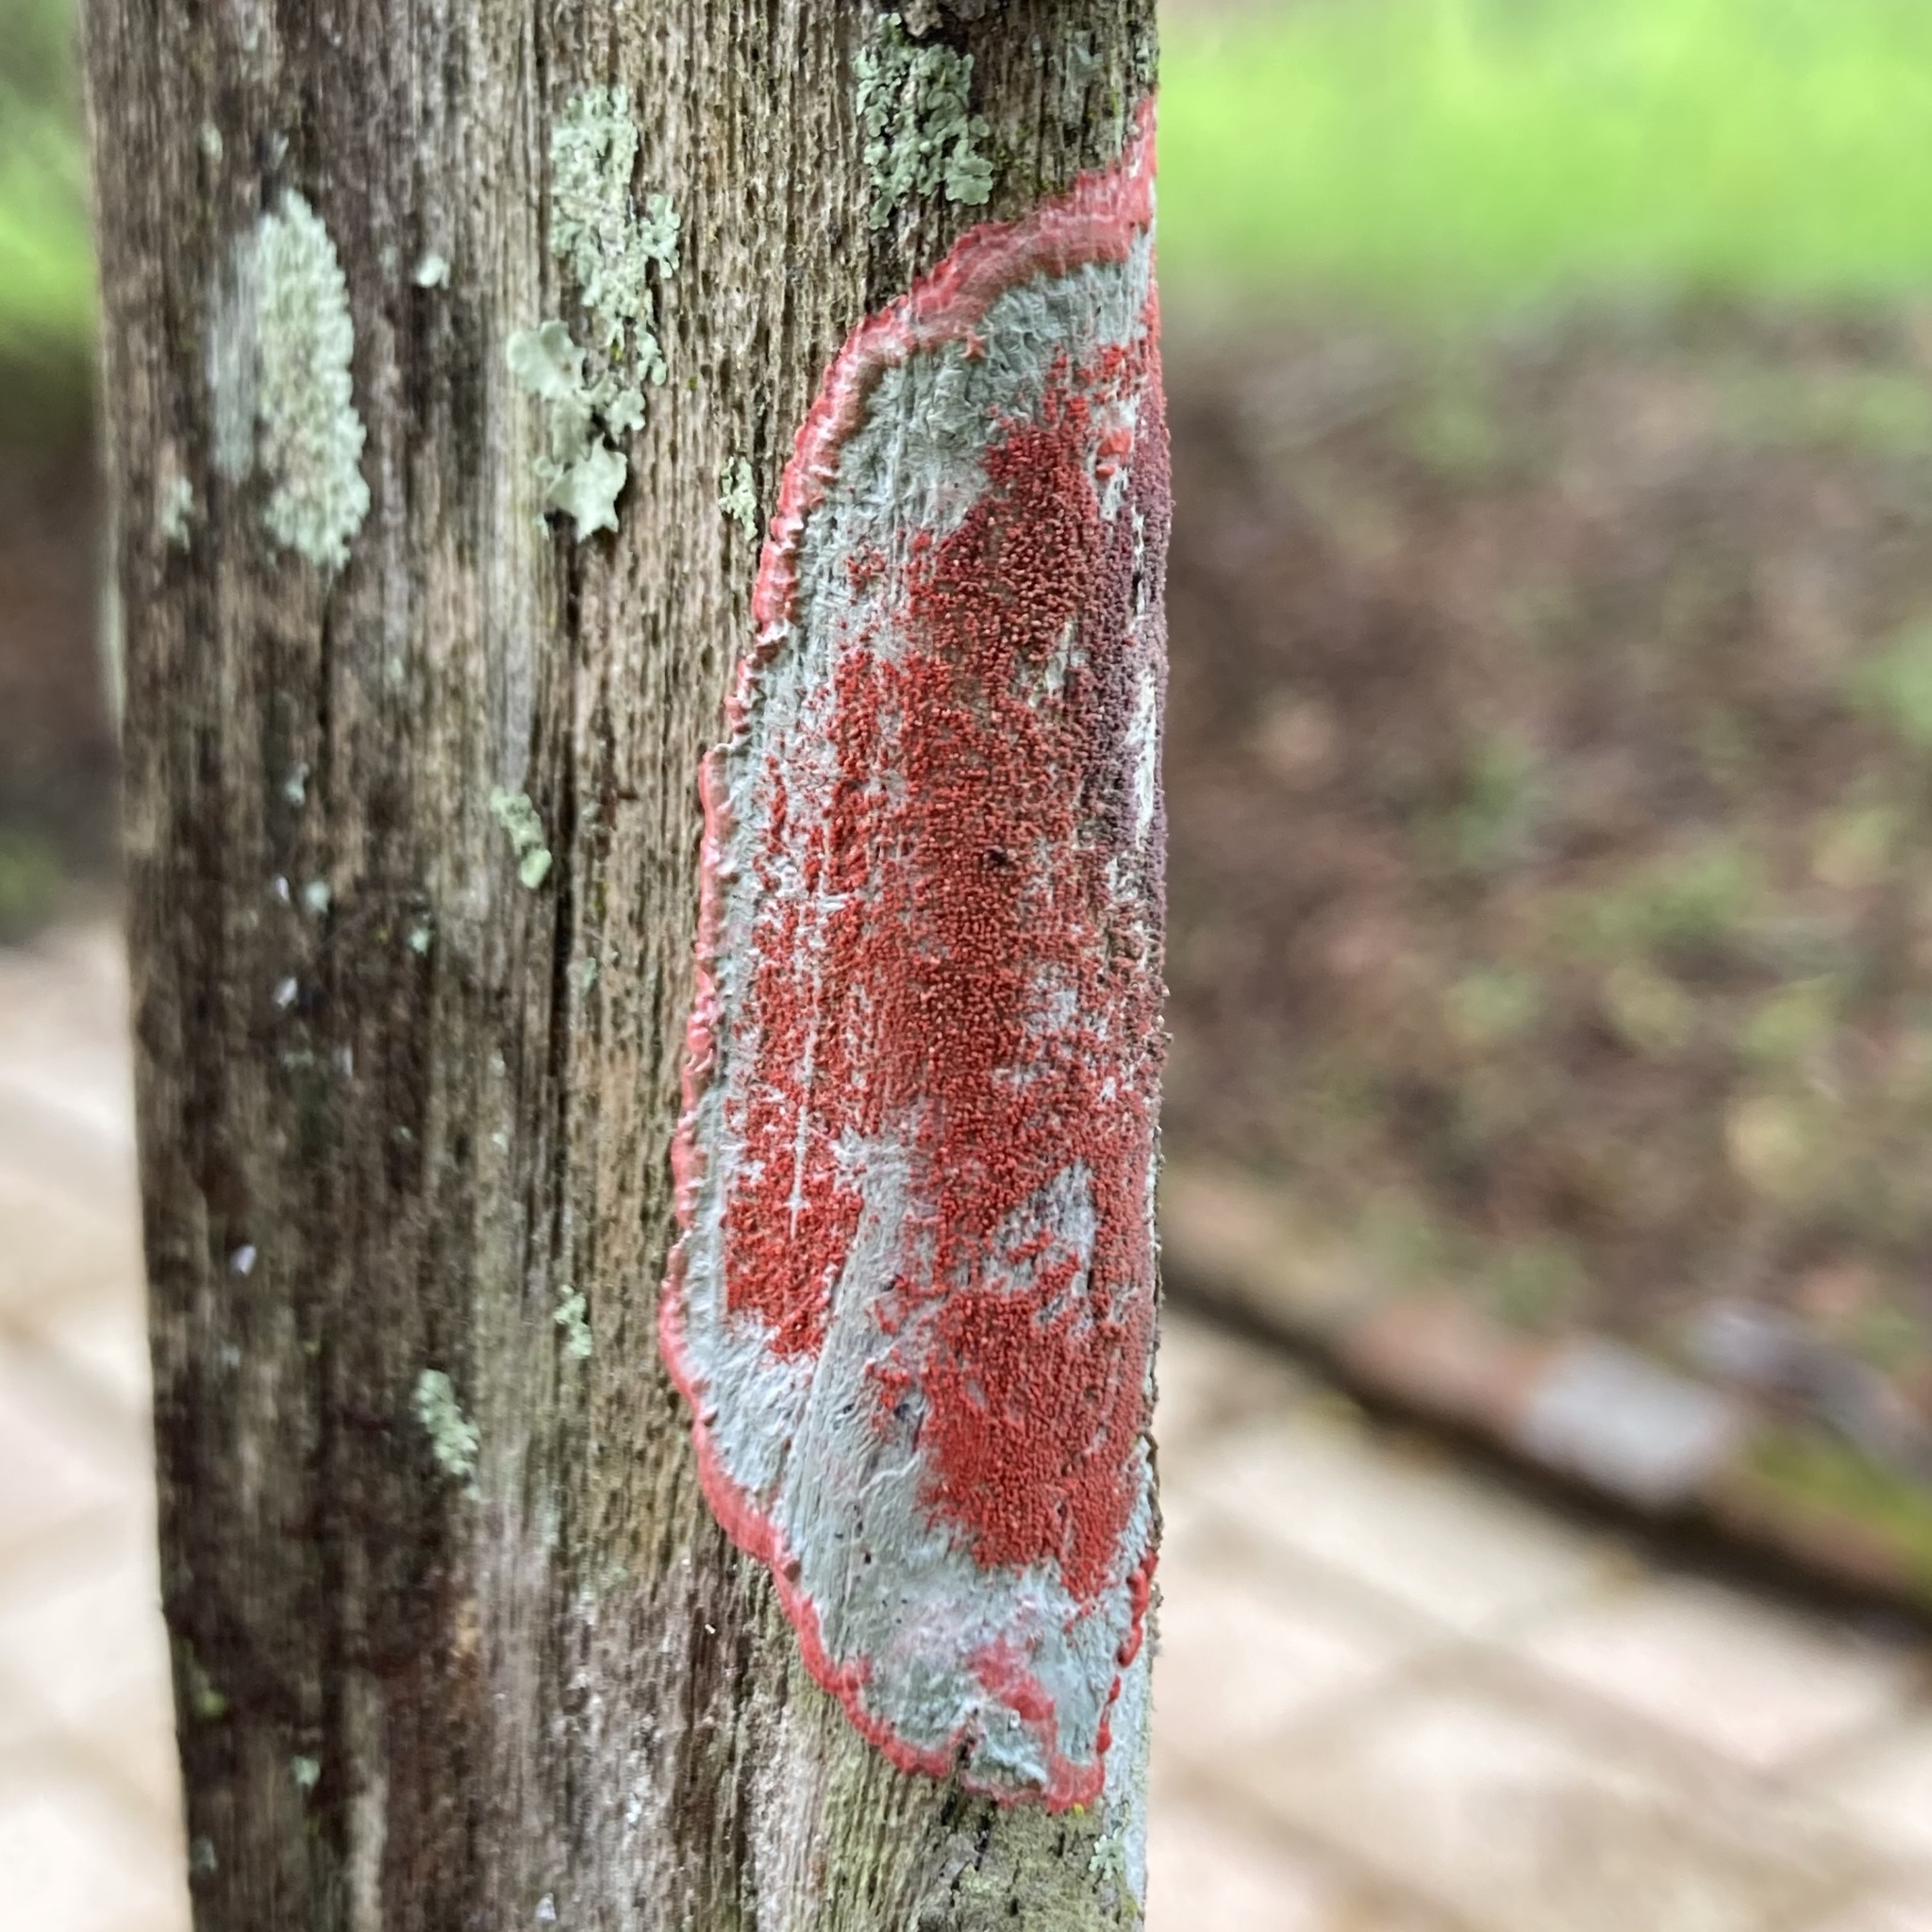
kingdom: Fungi
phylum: Ascomycota
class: Arthoniomycetes
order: Arthoniales
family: Arthoniaceae
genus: Herpothallon
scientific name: Herpothallon rubrocinctum
